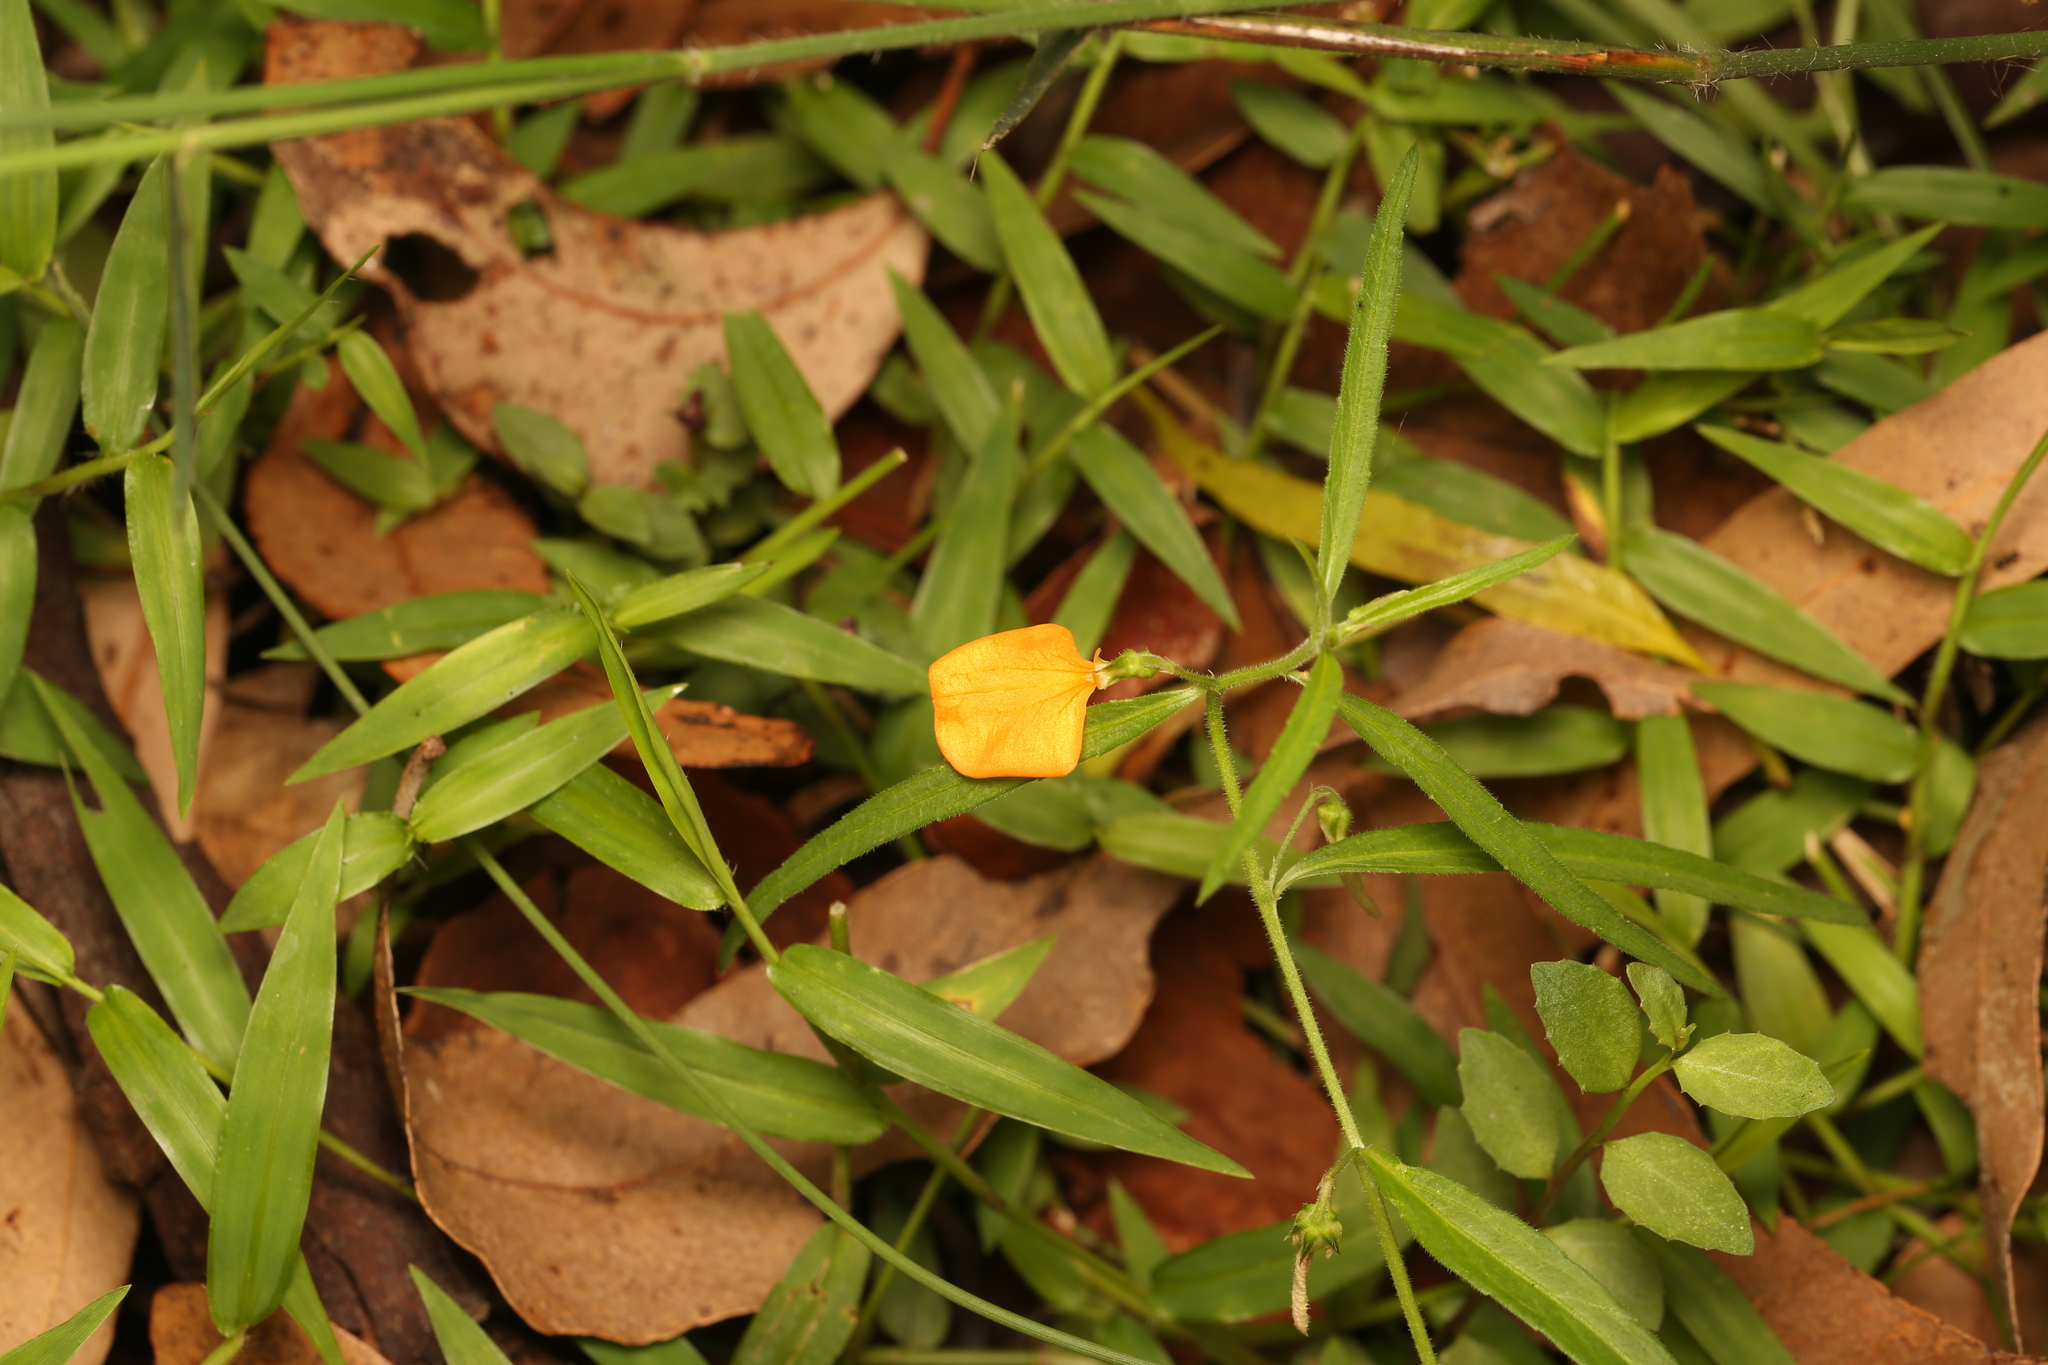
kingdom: Plantae
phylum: Tracheophyta
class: Magnoliopsida
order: Malpighiales
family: Violaceae
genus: Pigea
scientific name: Pigea stellarioides
